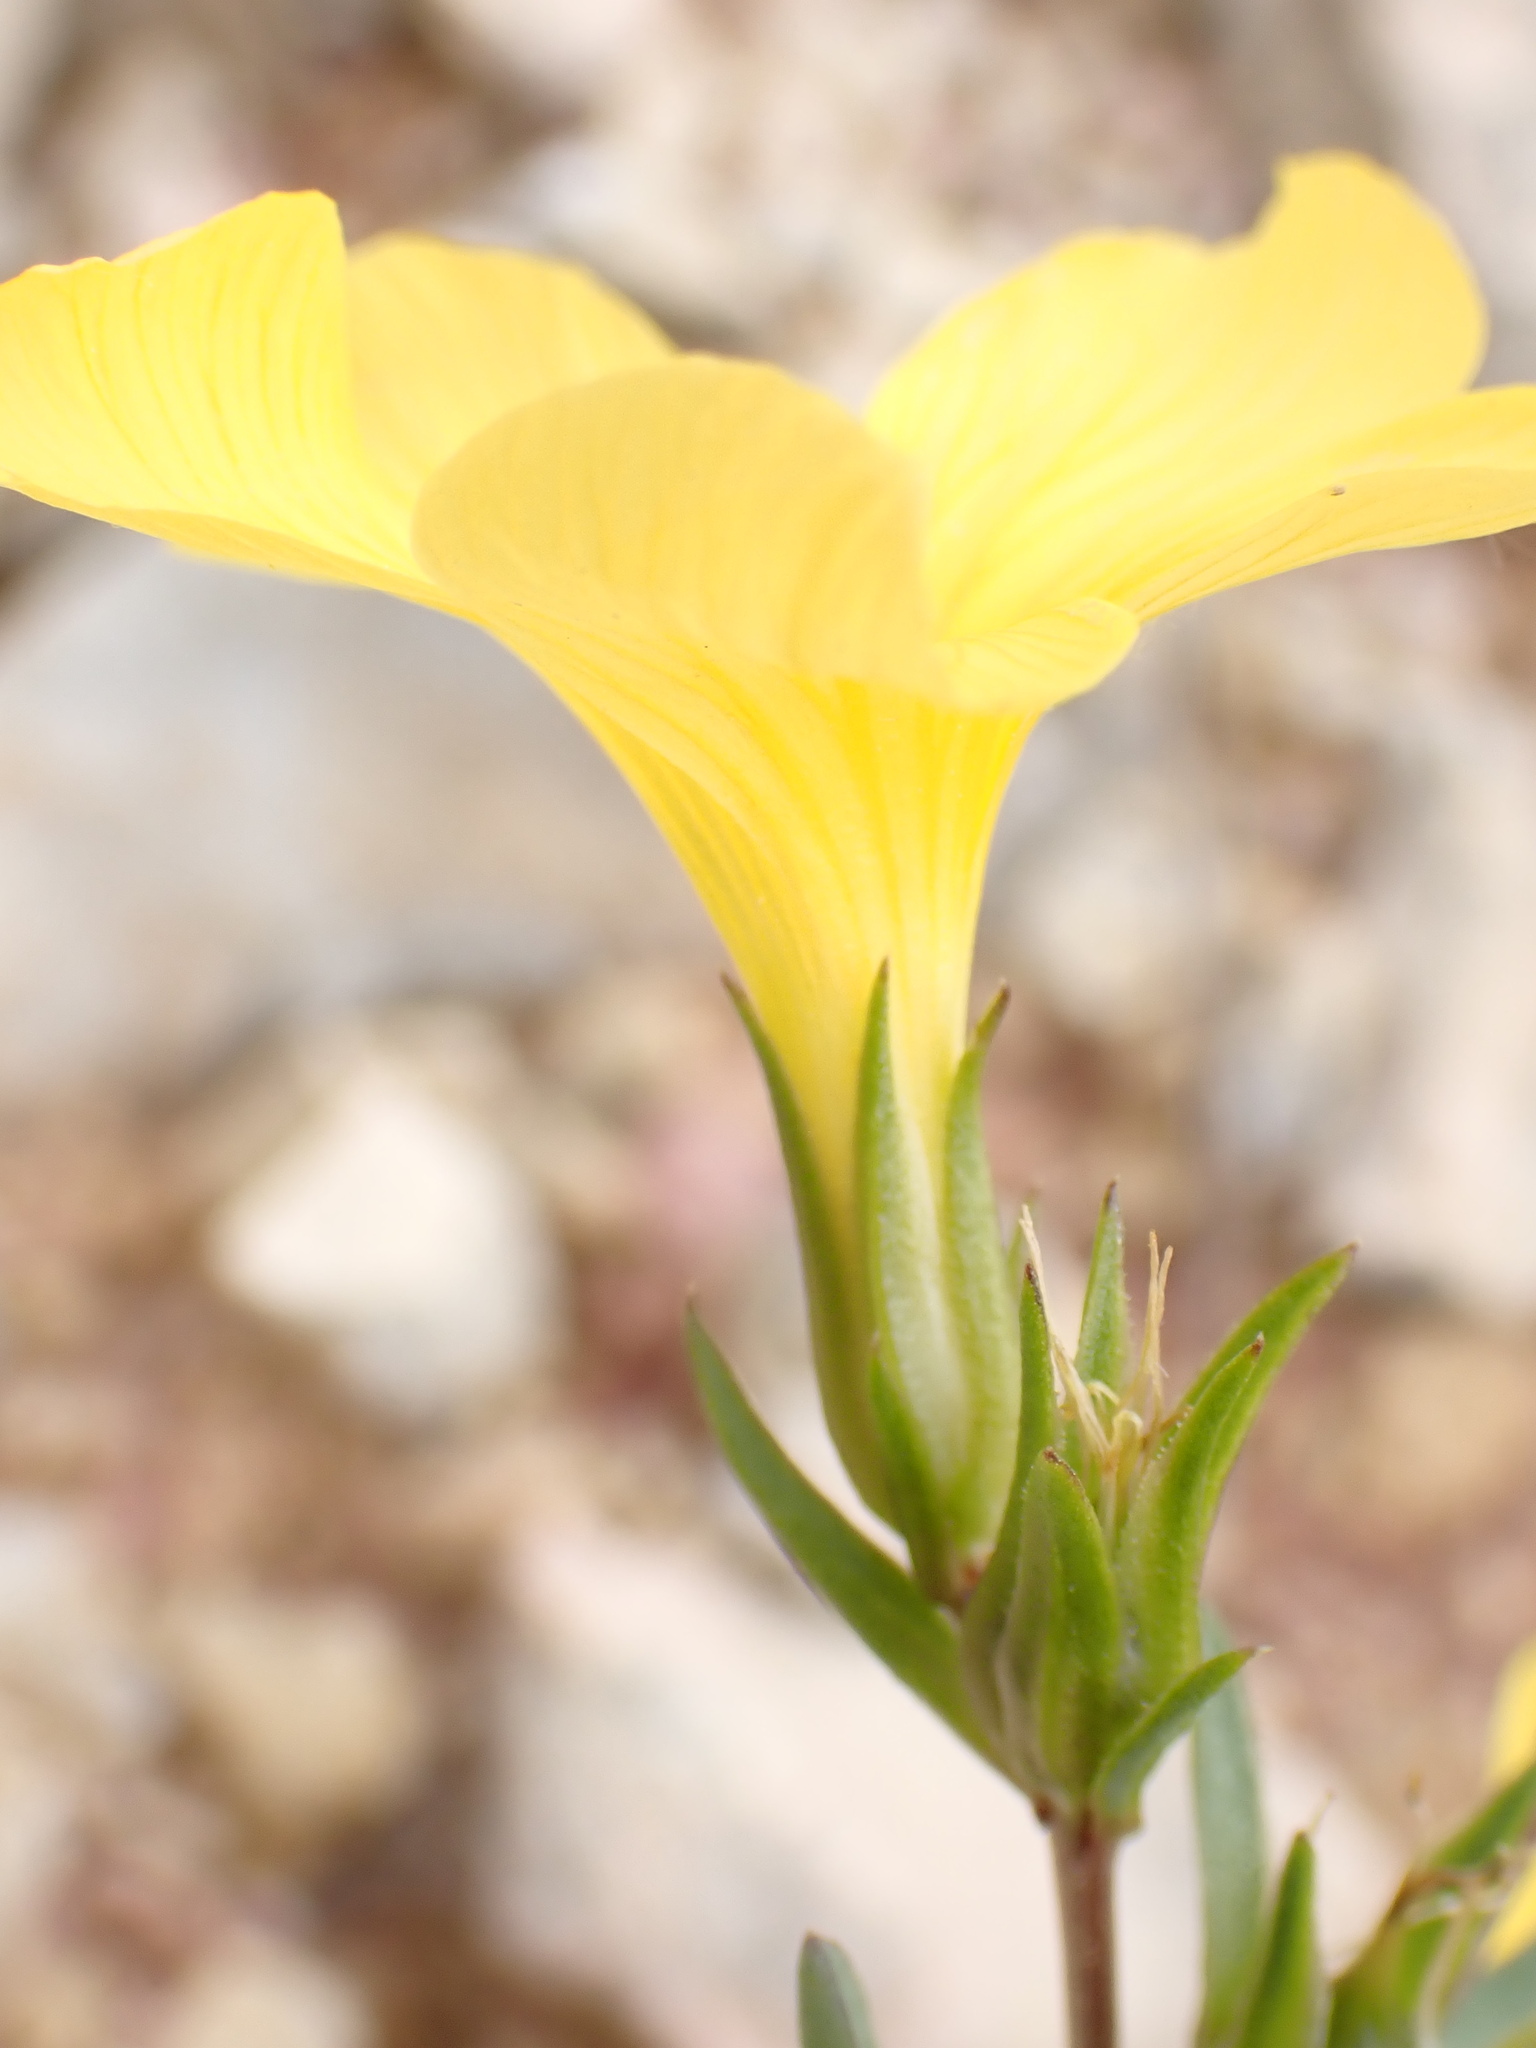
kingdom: Plantae
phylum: Tracheophyta
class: Magnoliopsida
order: Malpighiales
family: Linaceae
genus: Linum
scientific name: Linum campanulatum
